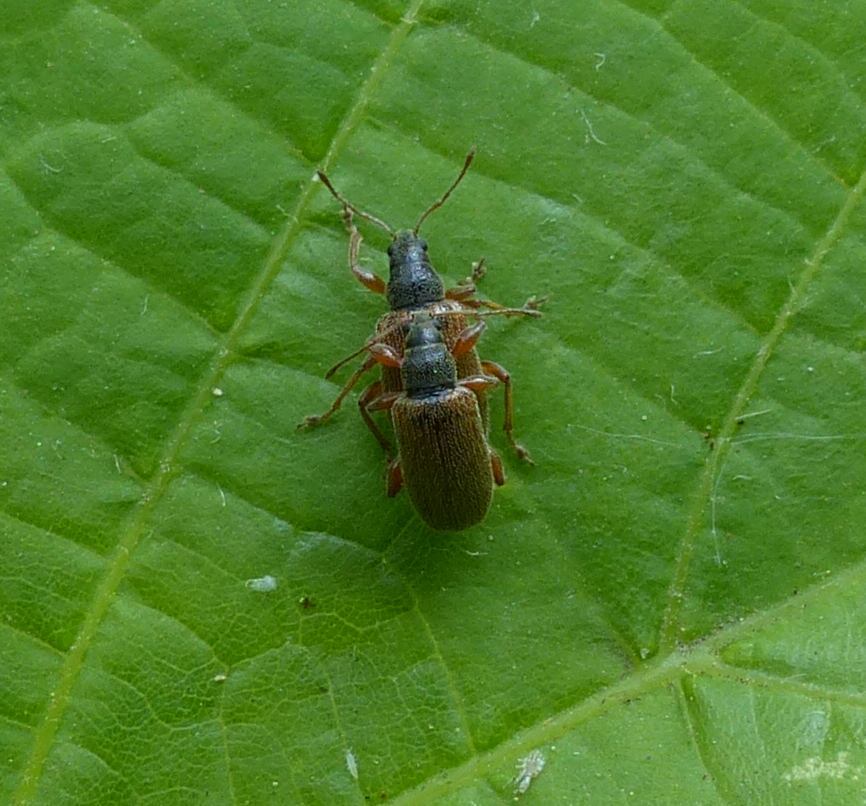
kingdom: Animalia
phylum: Arthropoda
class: Insecta
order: Coleoptera
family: Curculionidae
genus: Phyllobius
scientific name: Phyllobius oblongus
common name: Brown leaf weevil
